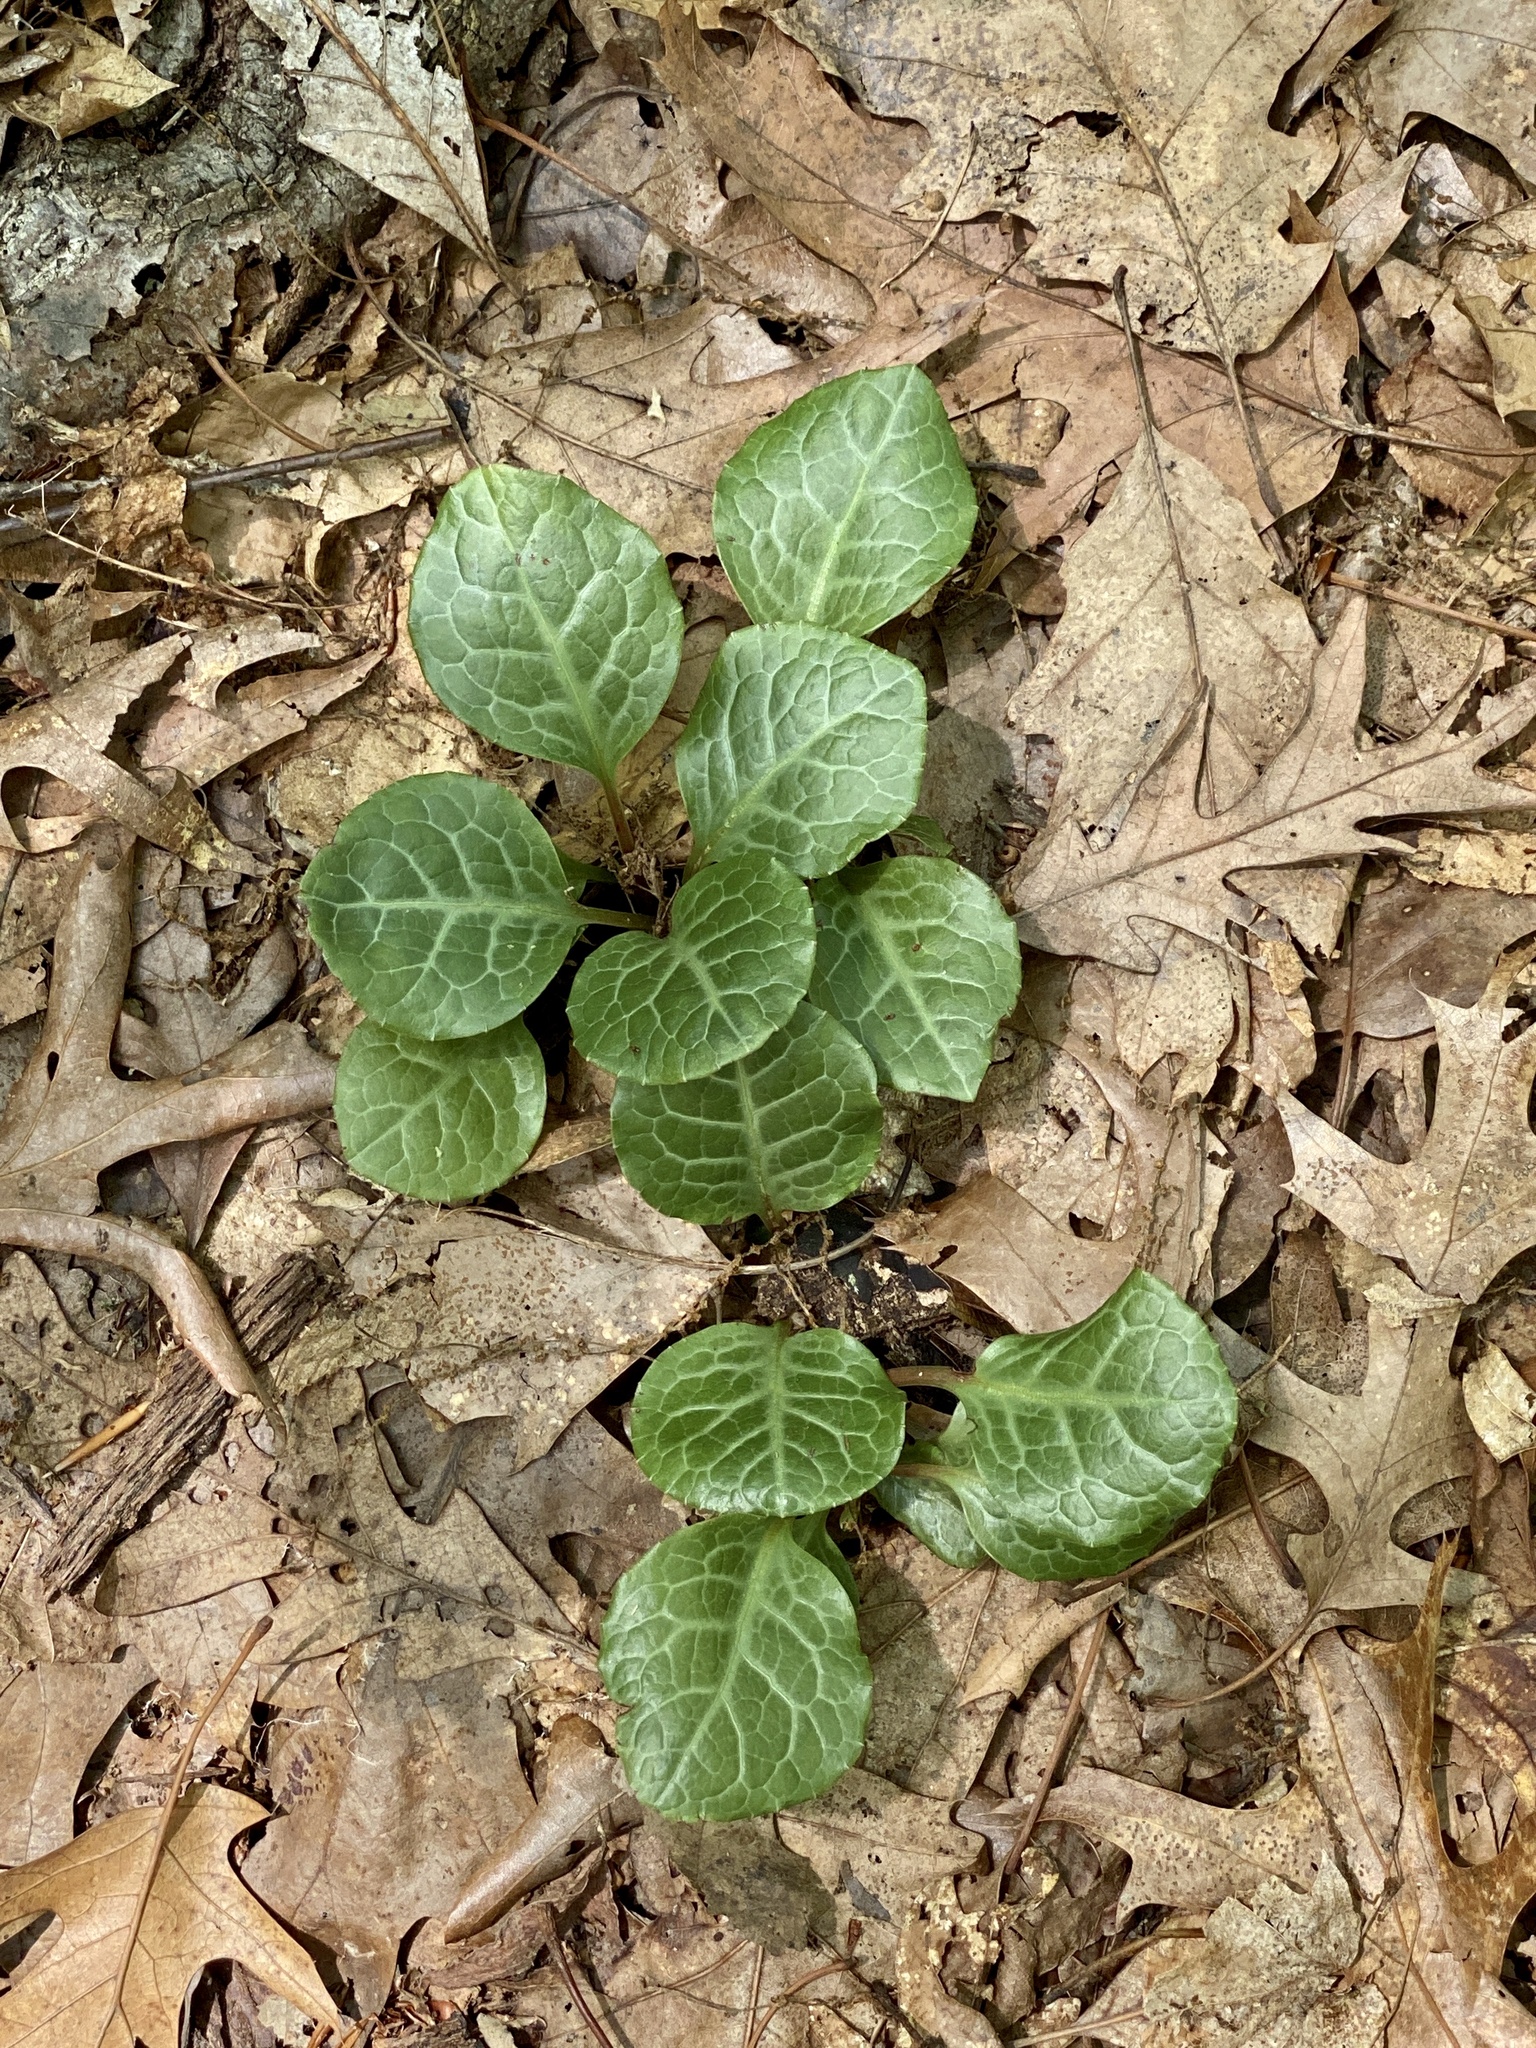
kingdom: Plantae
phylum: Tracheophyta
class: Magnoliopsida
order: Ericales
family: Ericaceae
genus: Pyrola
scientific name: Pyrola americana
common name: American wintergreen
